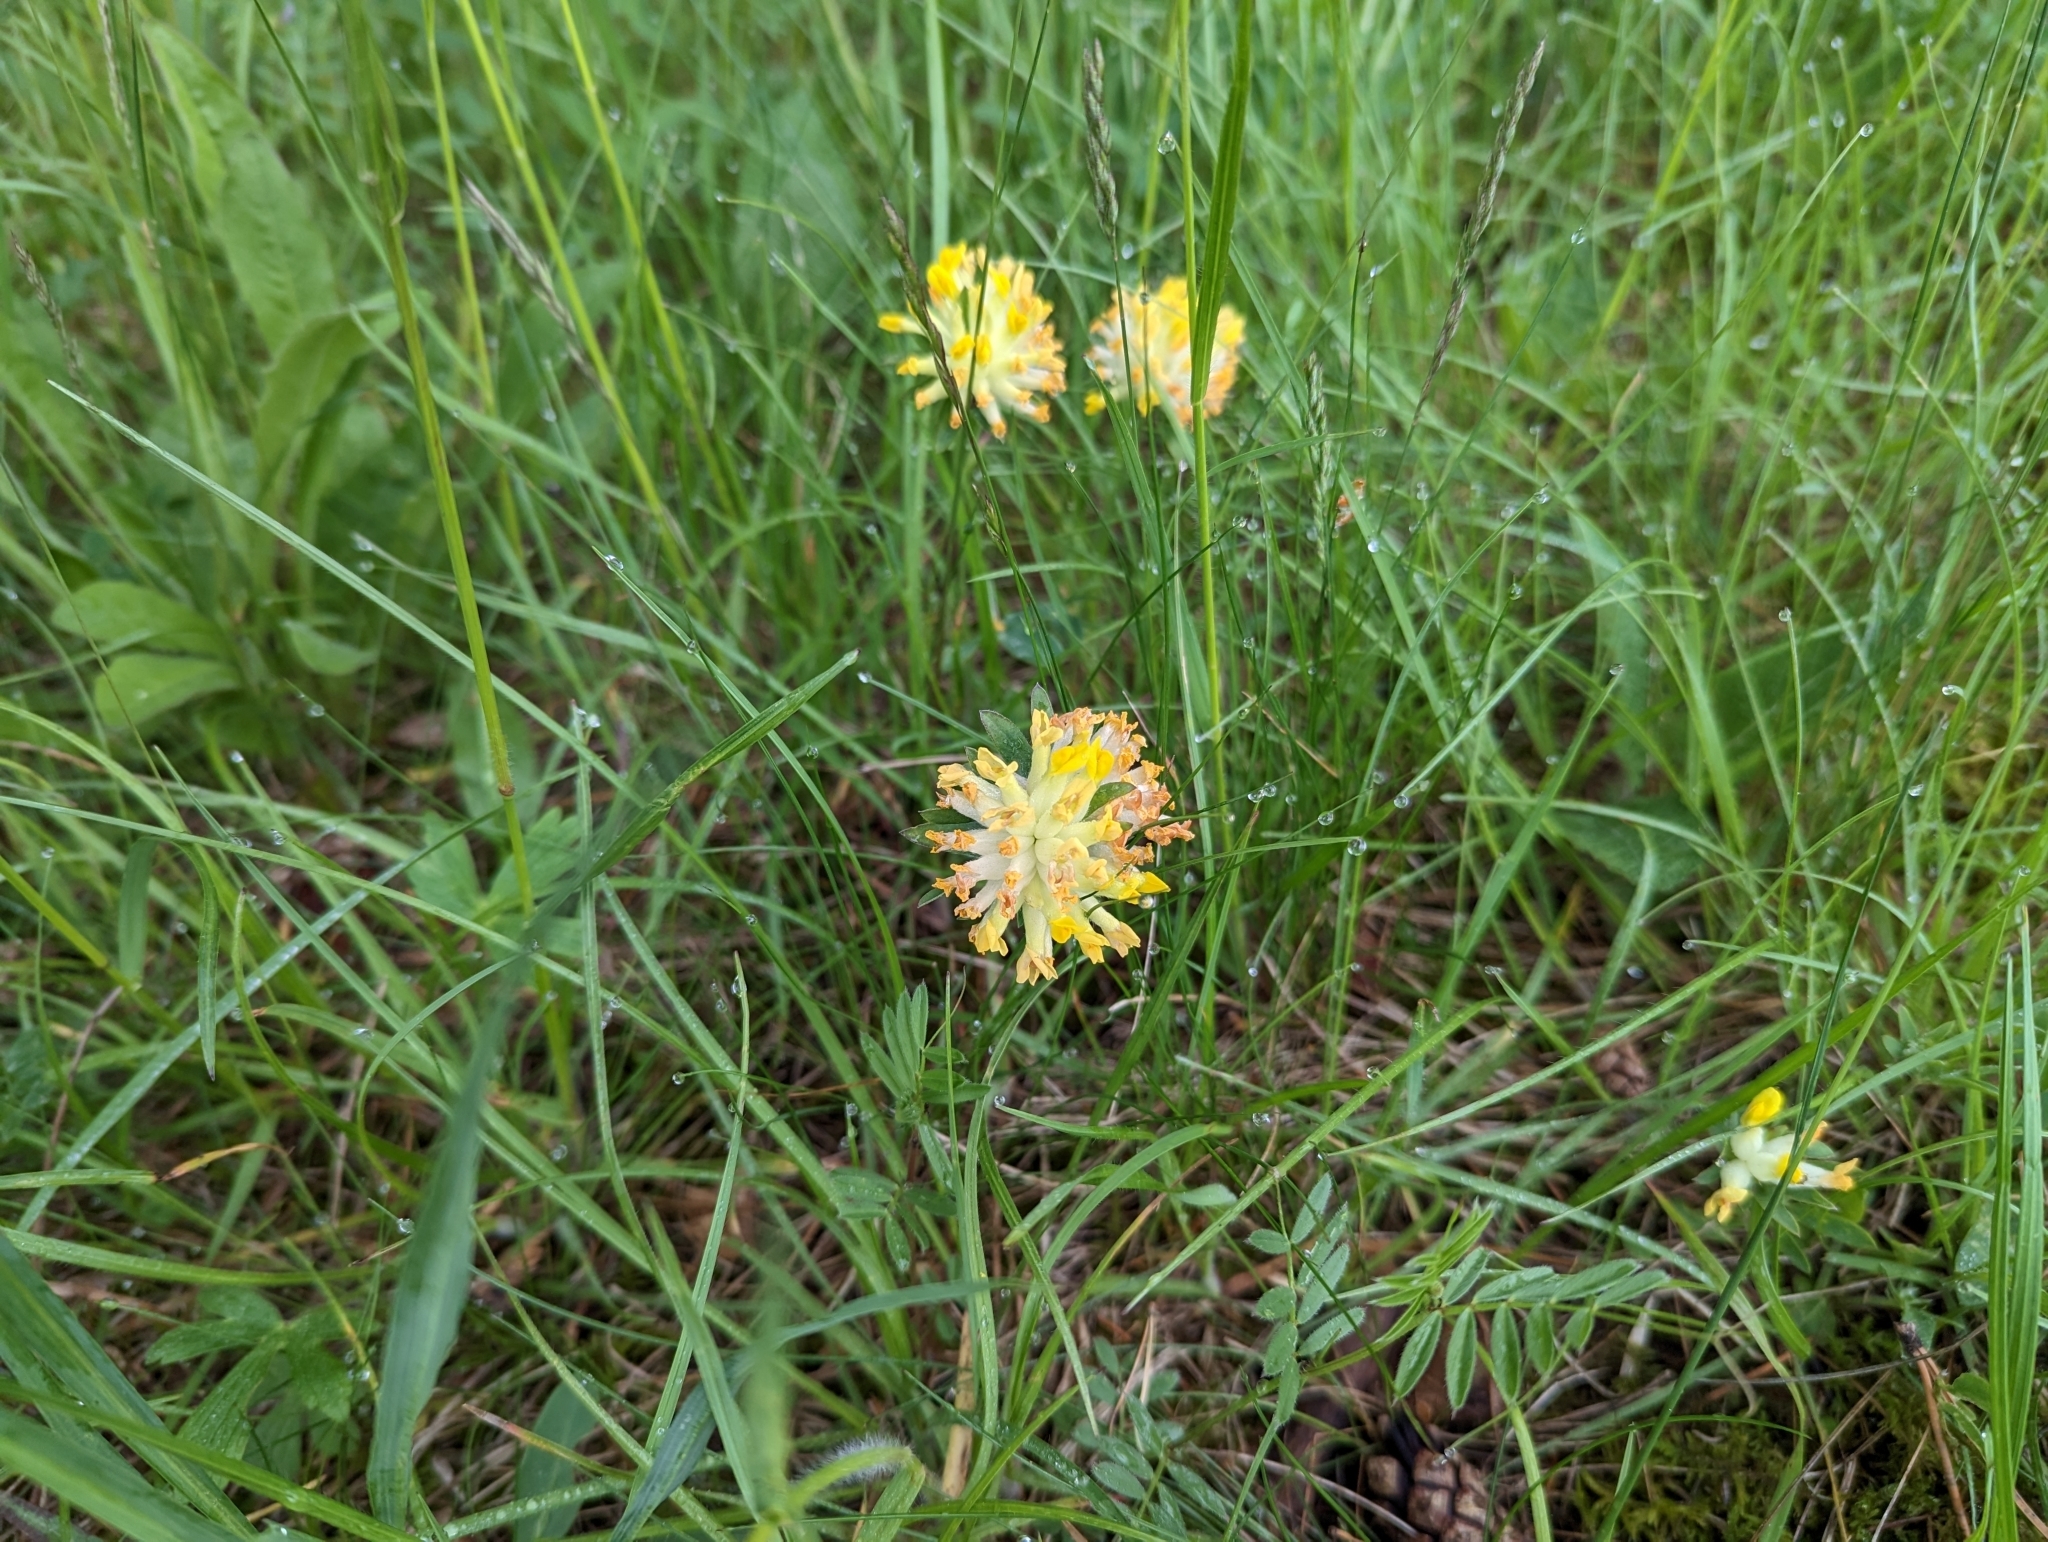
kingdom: Plantae
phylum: Tracheophyta
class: Magnoliopsida
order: Fabales
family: Fabaceae
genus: Anthyllis
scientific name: Anthyllis vulneraria
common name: Kidney vetch
